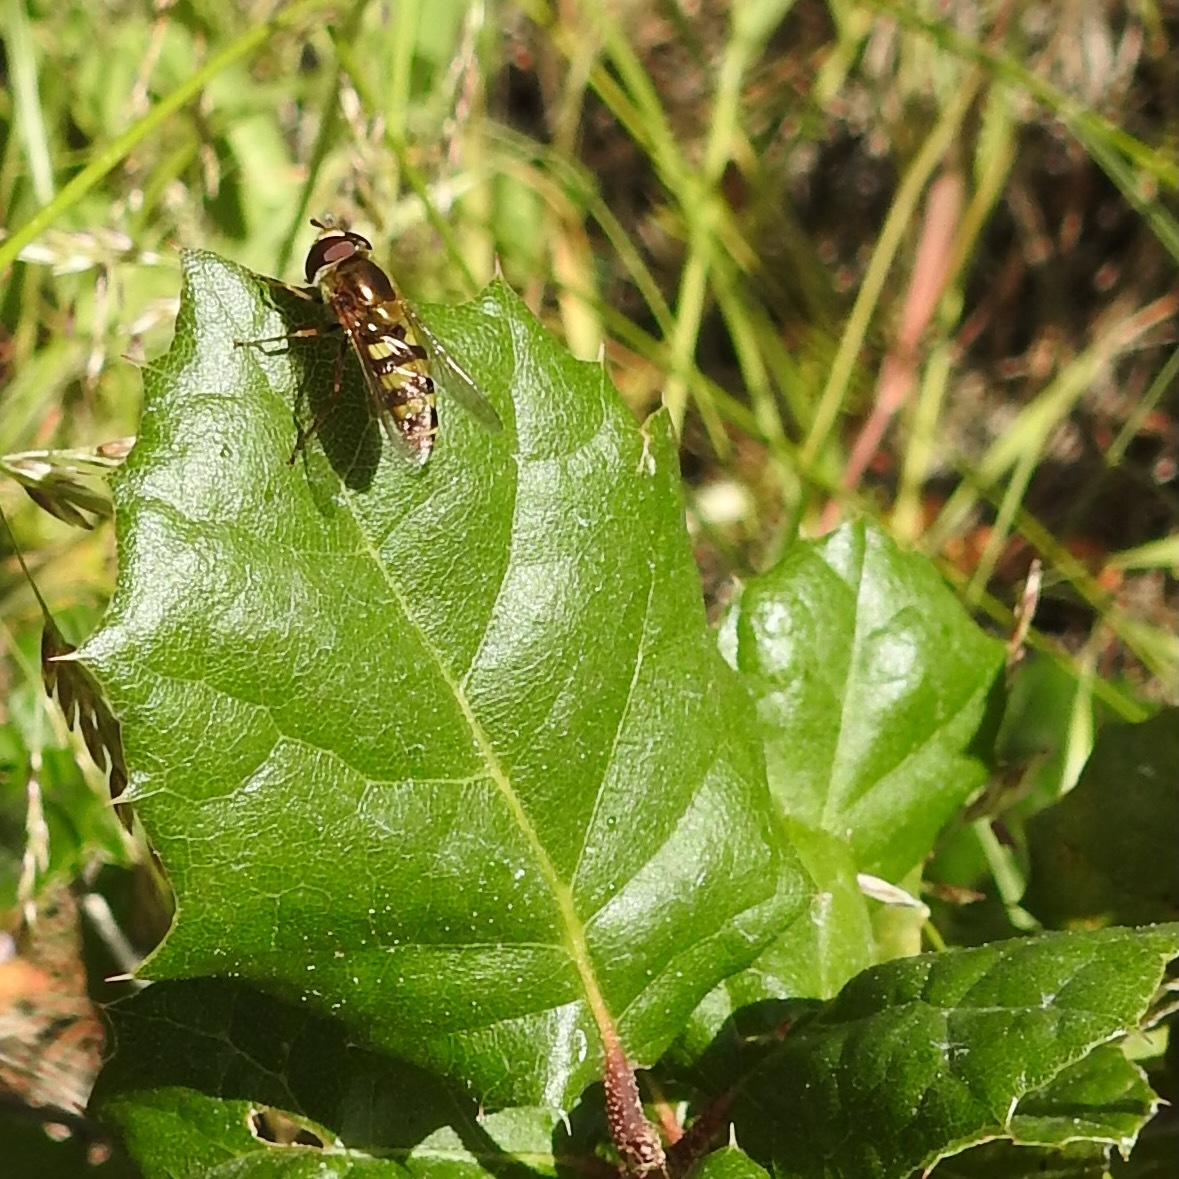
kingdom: Animalia
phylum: Arthropoda
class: Insecta
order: Diptera
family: Syrphidae
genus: Eupeodes
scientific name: Eupeodes fumipennis
